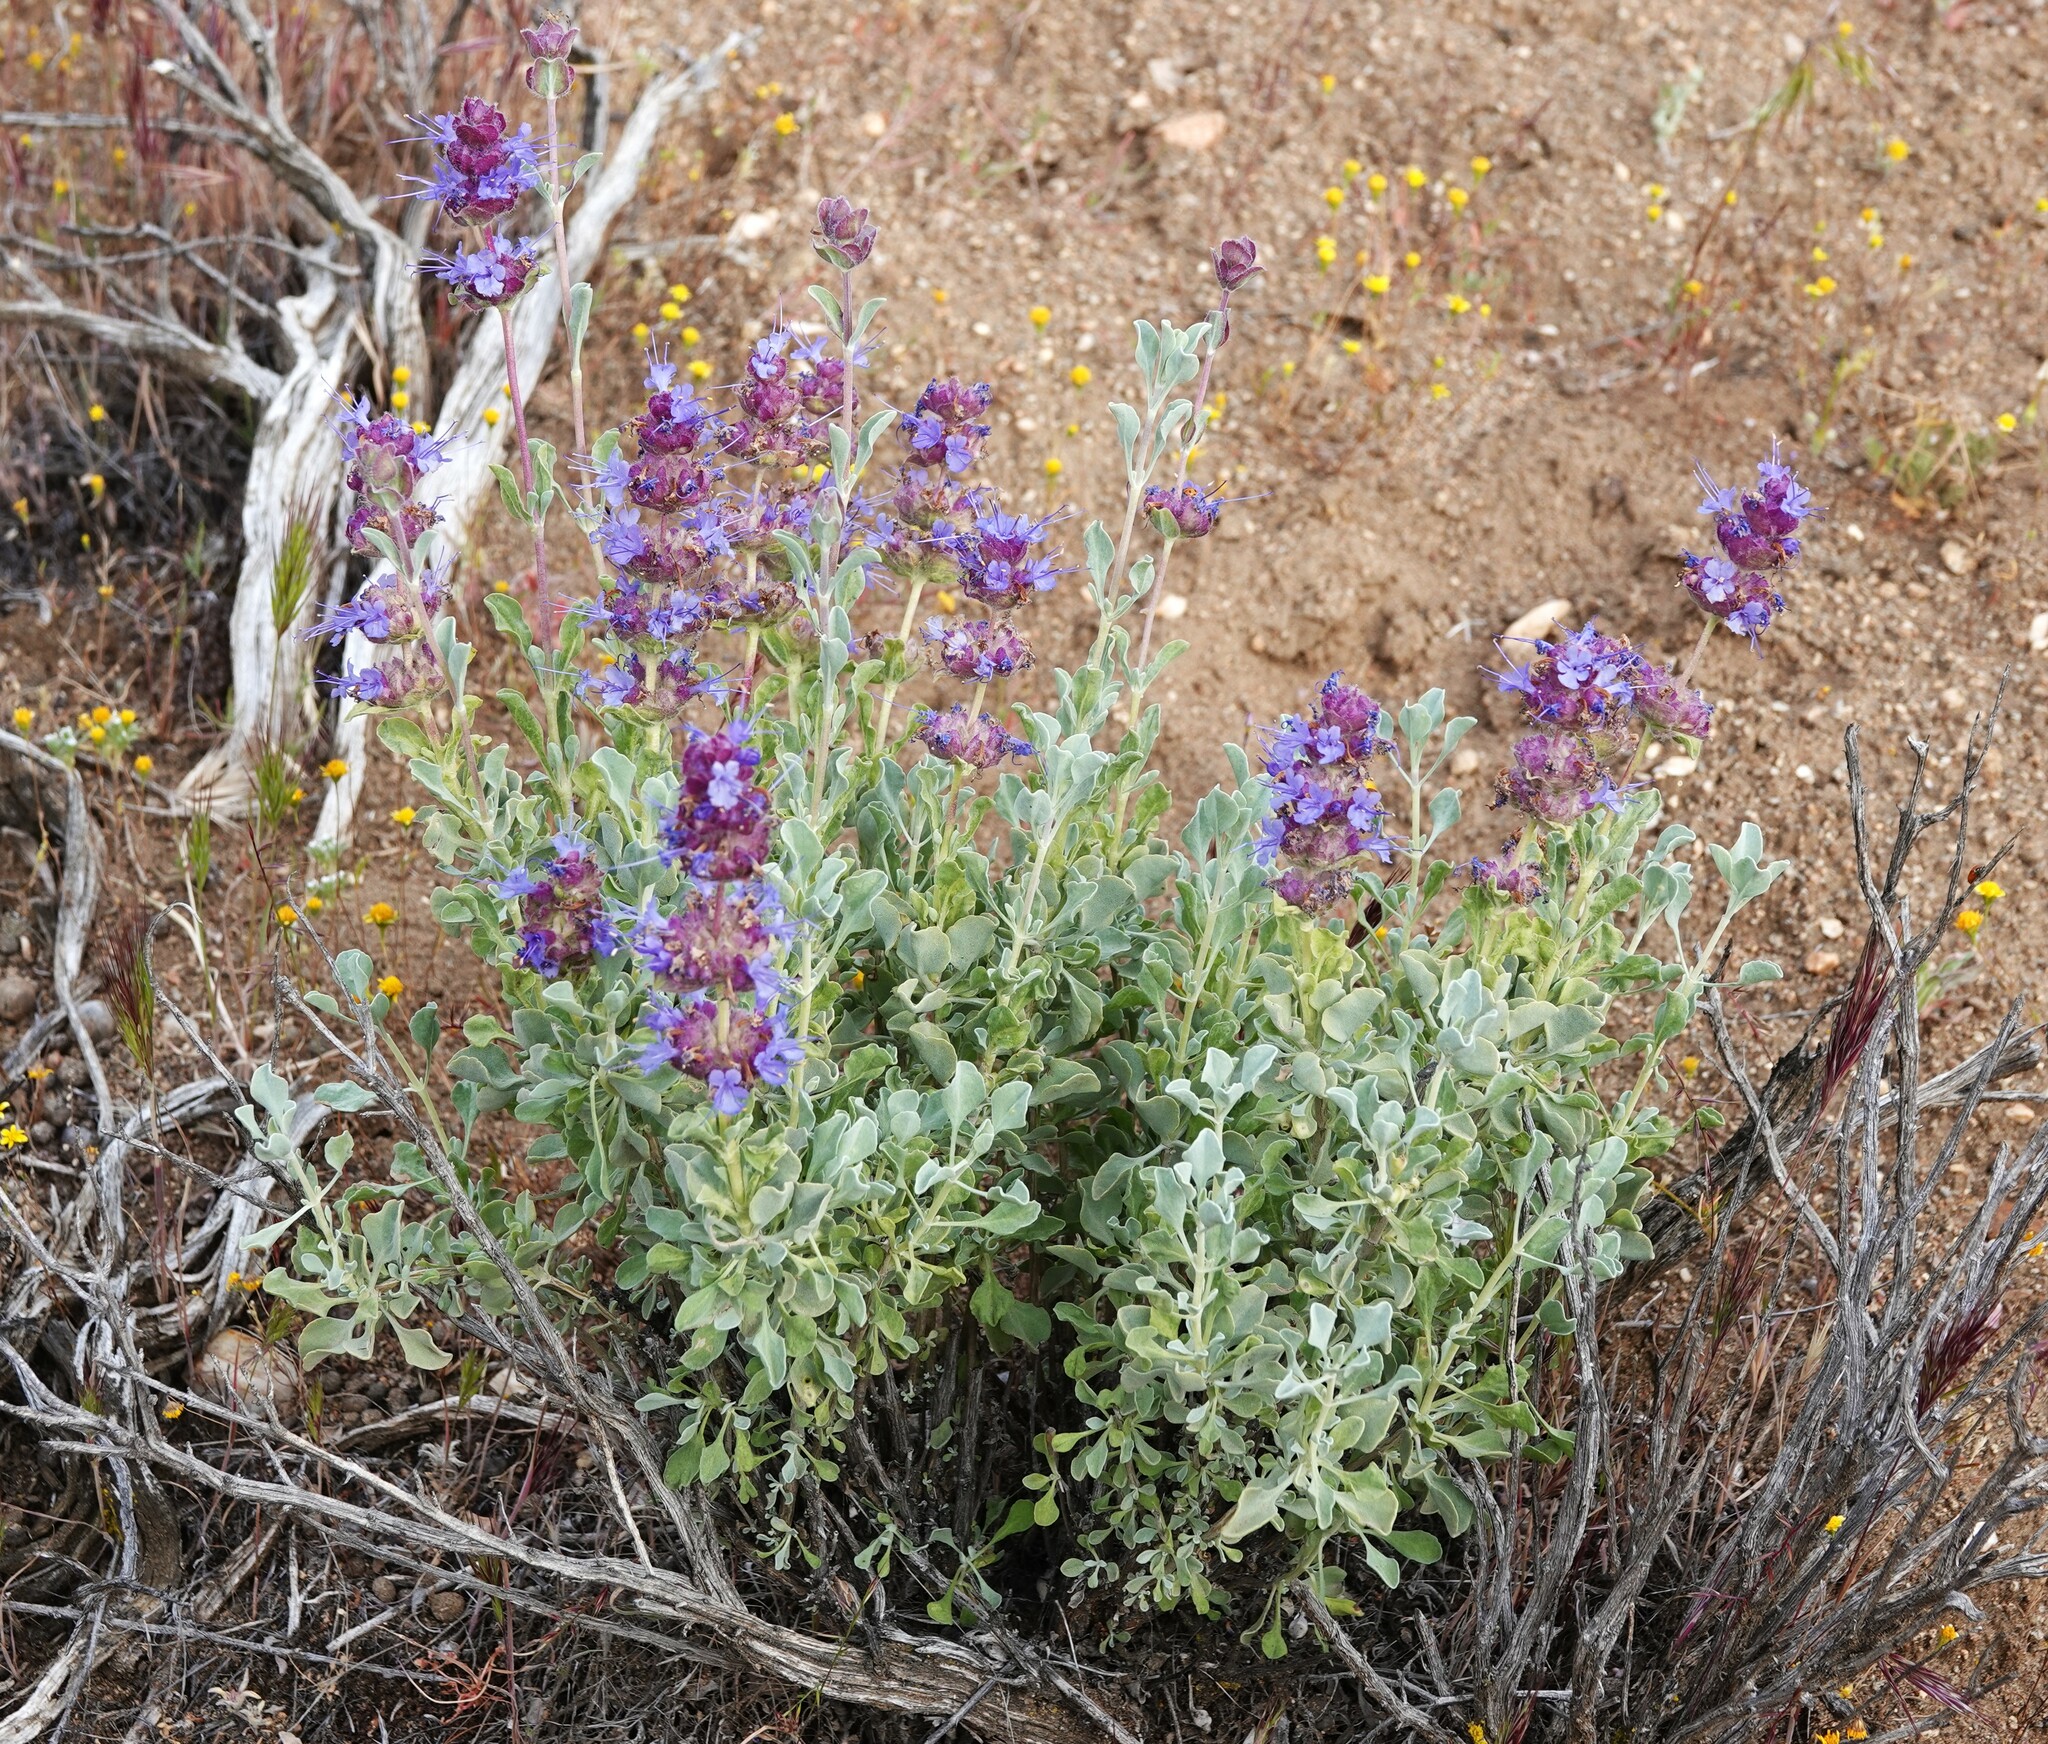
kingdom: Plantae
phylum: Tracheophyta
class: Magnoliopsida
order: Lamiales
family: Lamiaceae
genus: Salvia
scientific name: Salvia dorrii
